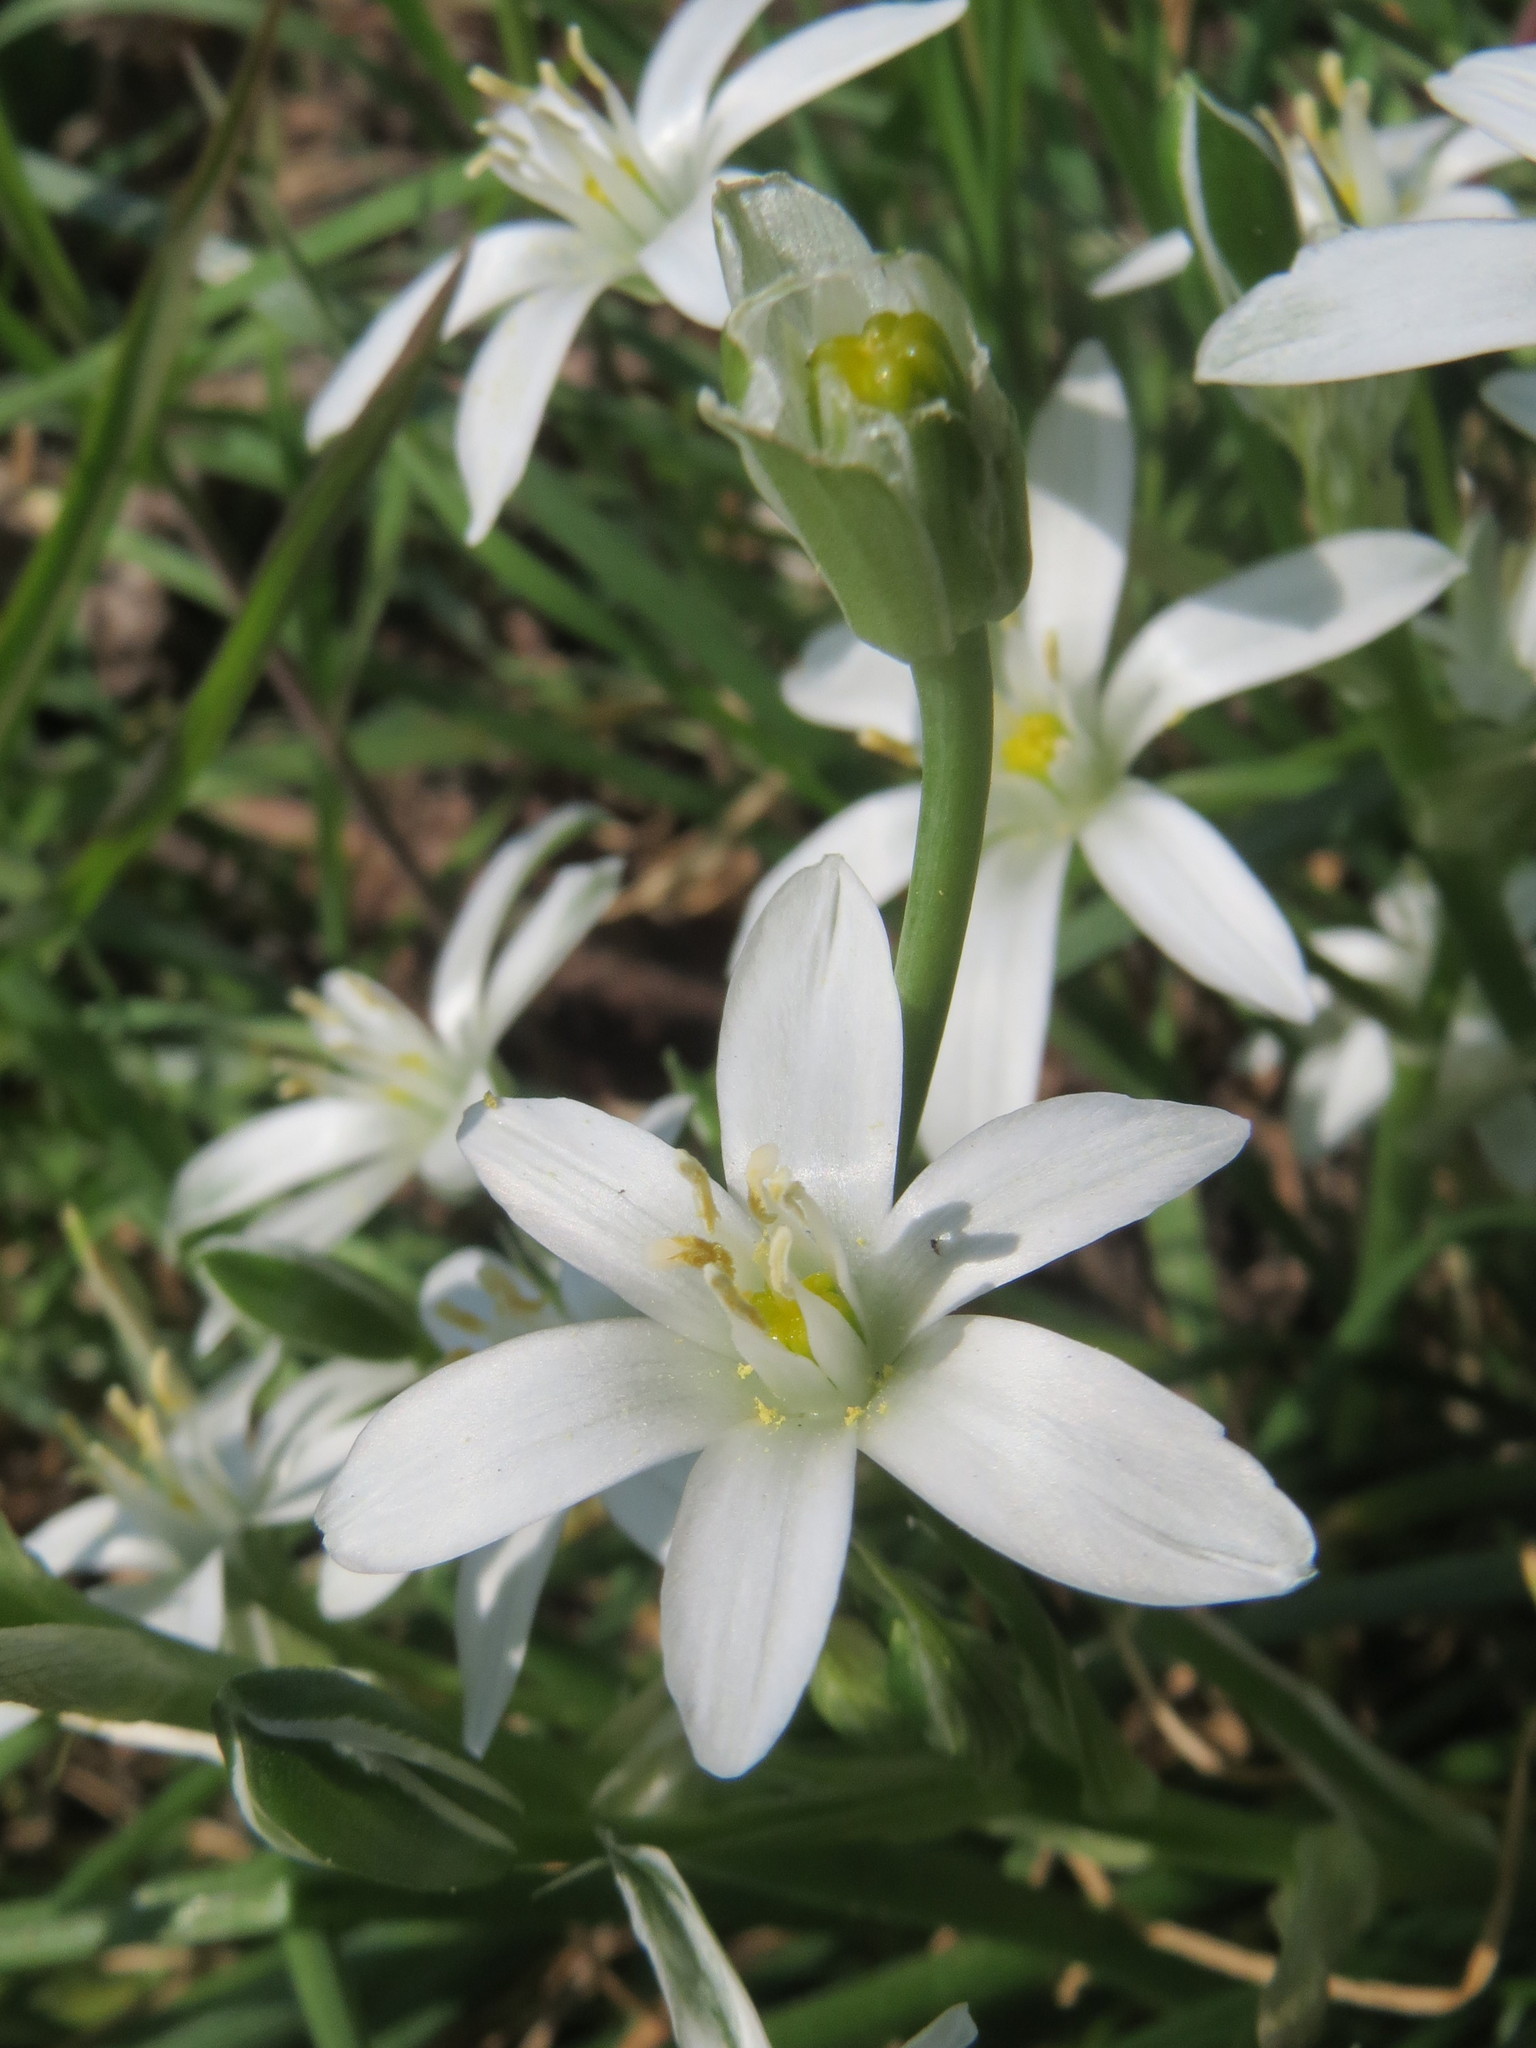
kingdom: Plantae
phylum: Tracheophyta
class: Liliopsida
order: Asparagales
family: Asparagaceae
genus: Ornithogalum
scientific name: Ornithogalum umbellatum
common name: Garden star-of-bethlehem
